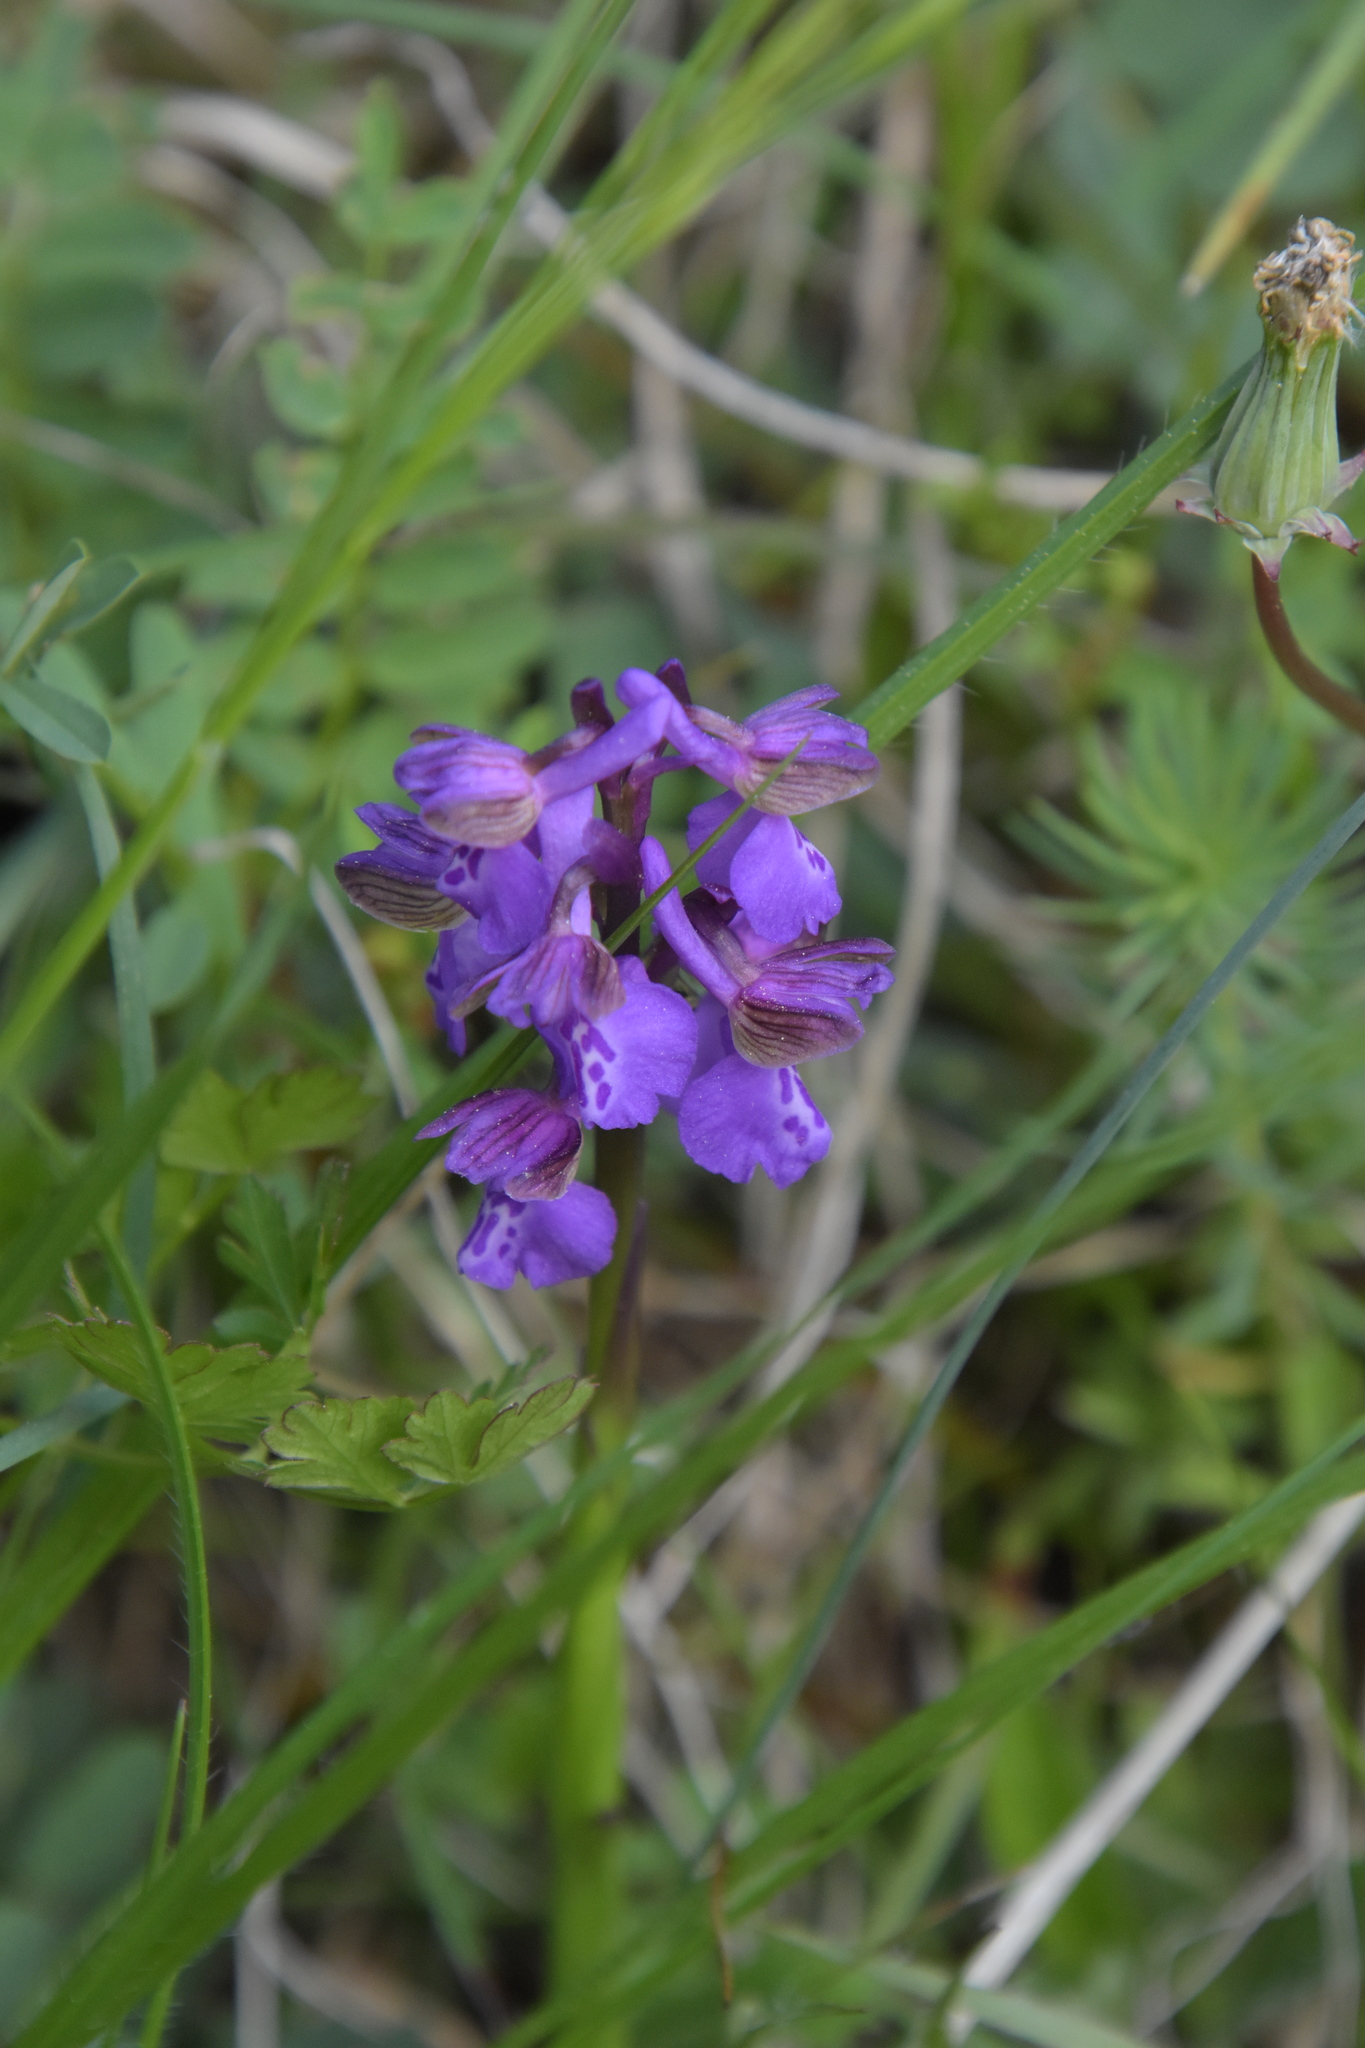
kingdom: Plantae
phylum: Tracheophyta
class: Liliopsida
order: Asparagales
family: Orchidaceae
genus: Anacamptis
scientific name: Anacamptis morio
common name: Green-winged orchid
